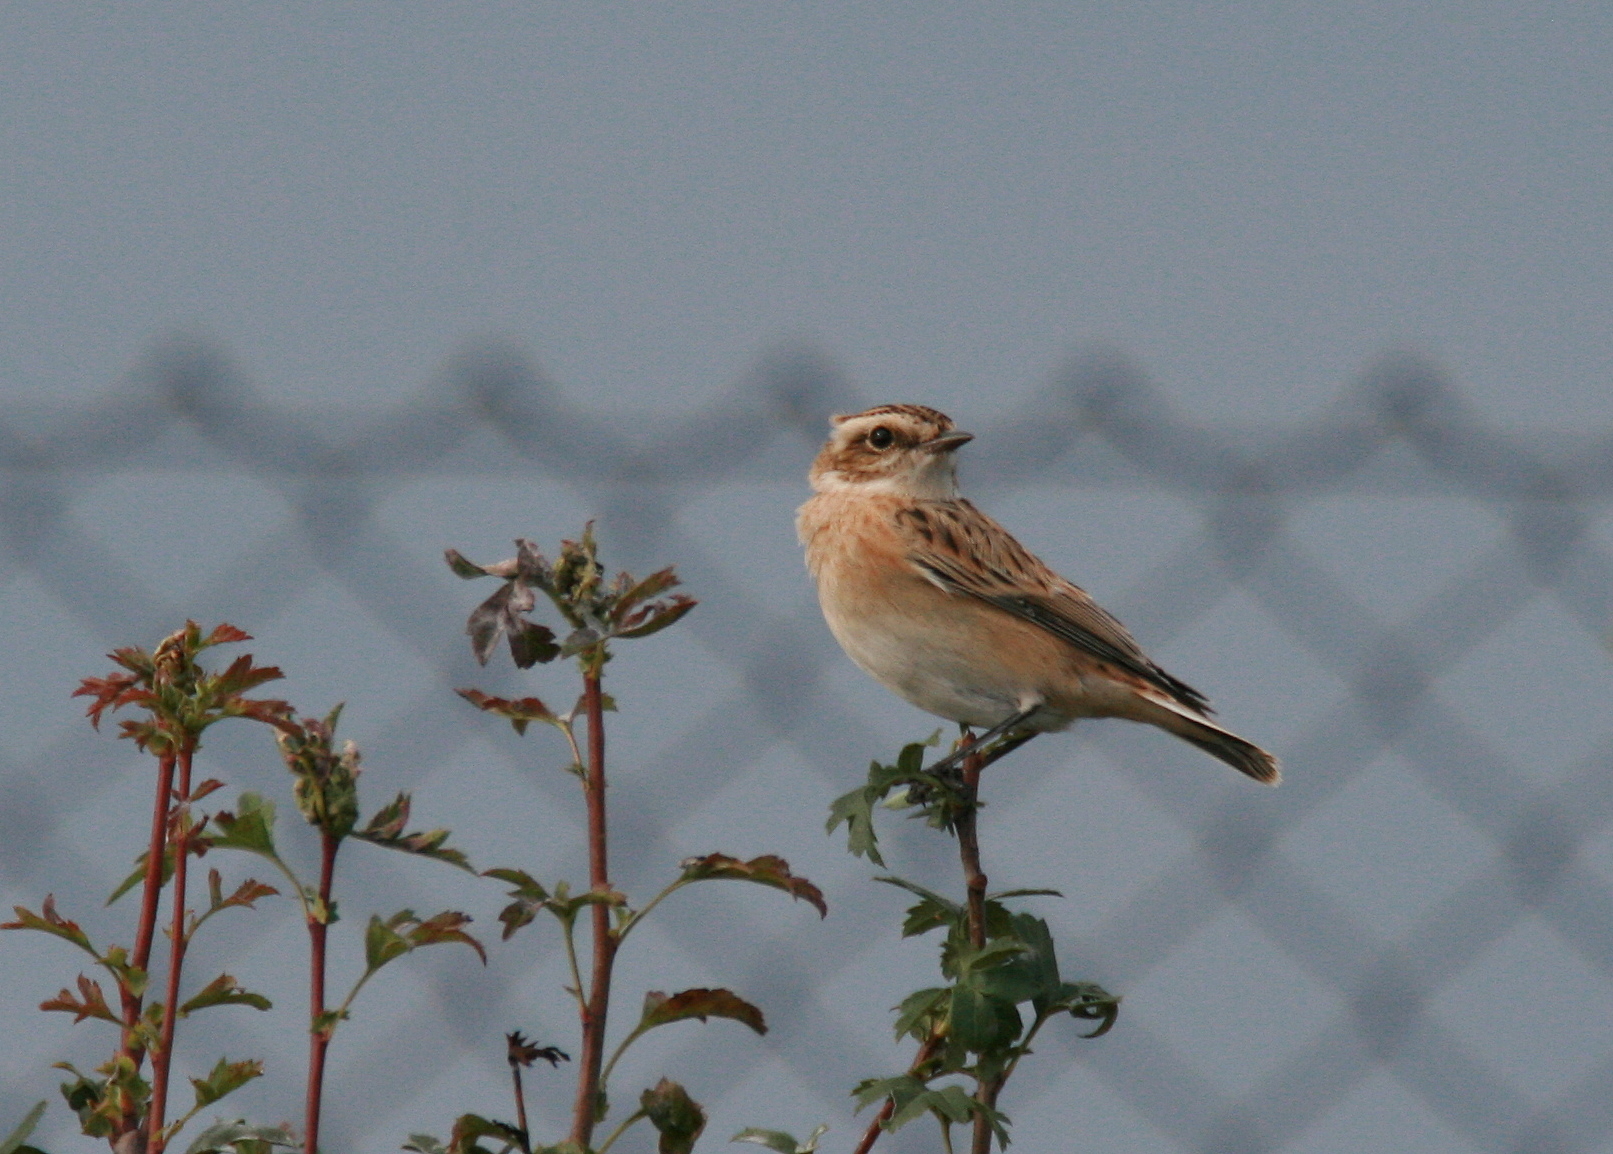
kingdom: Animalia
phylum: Chordata
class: Aves
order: Passeriformes
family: Muscicapidae
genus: Saxicola
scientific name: Saxicola rubetra
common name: Whinchat
